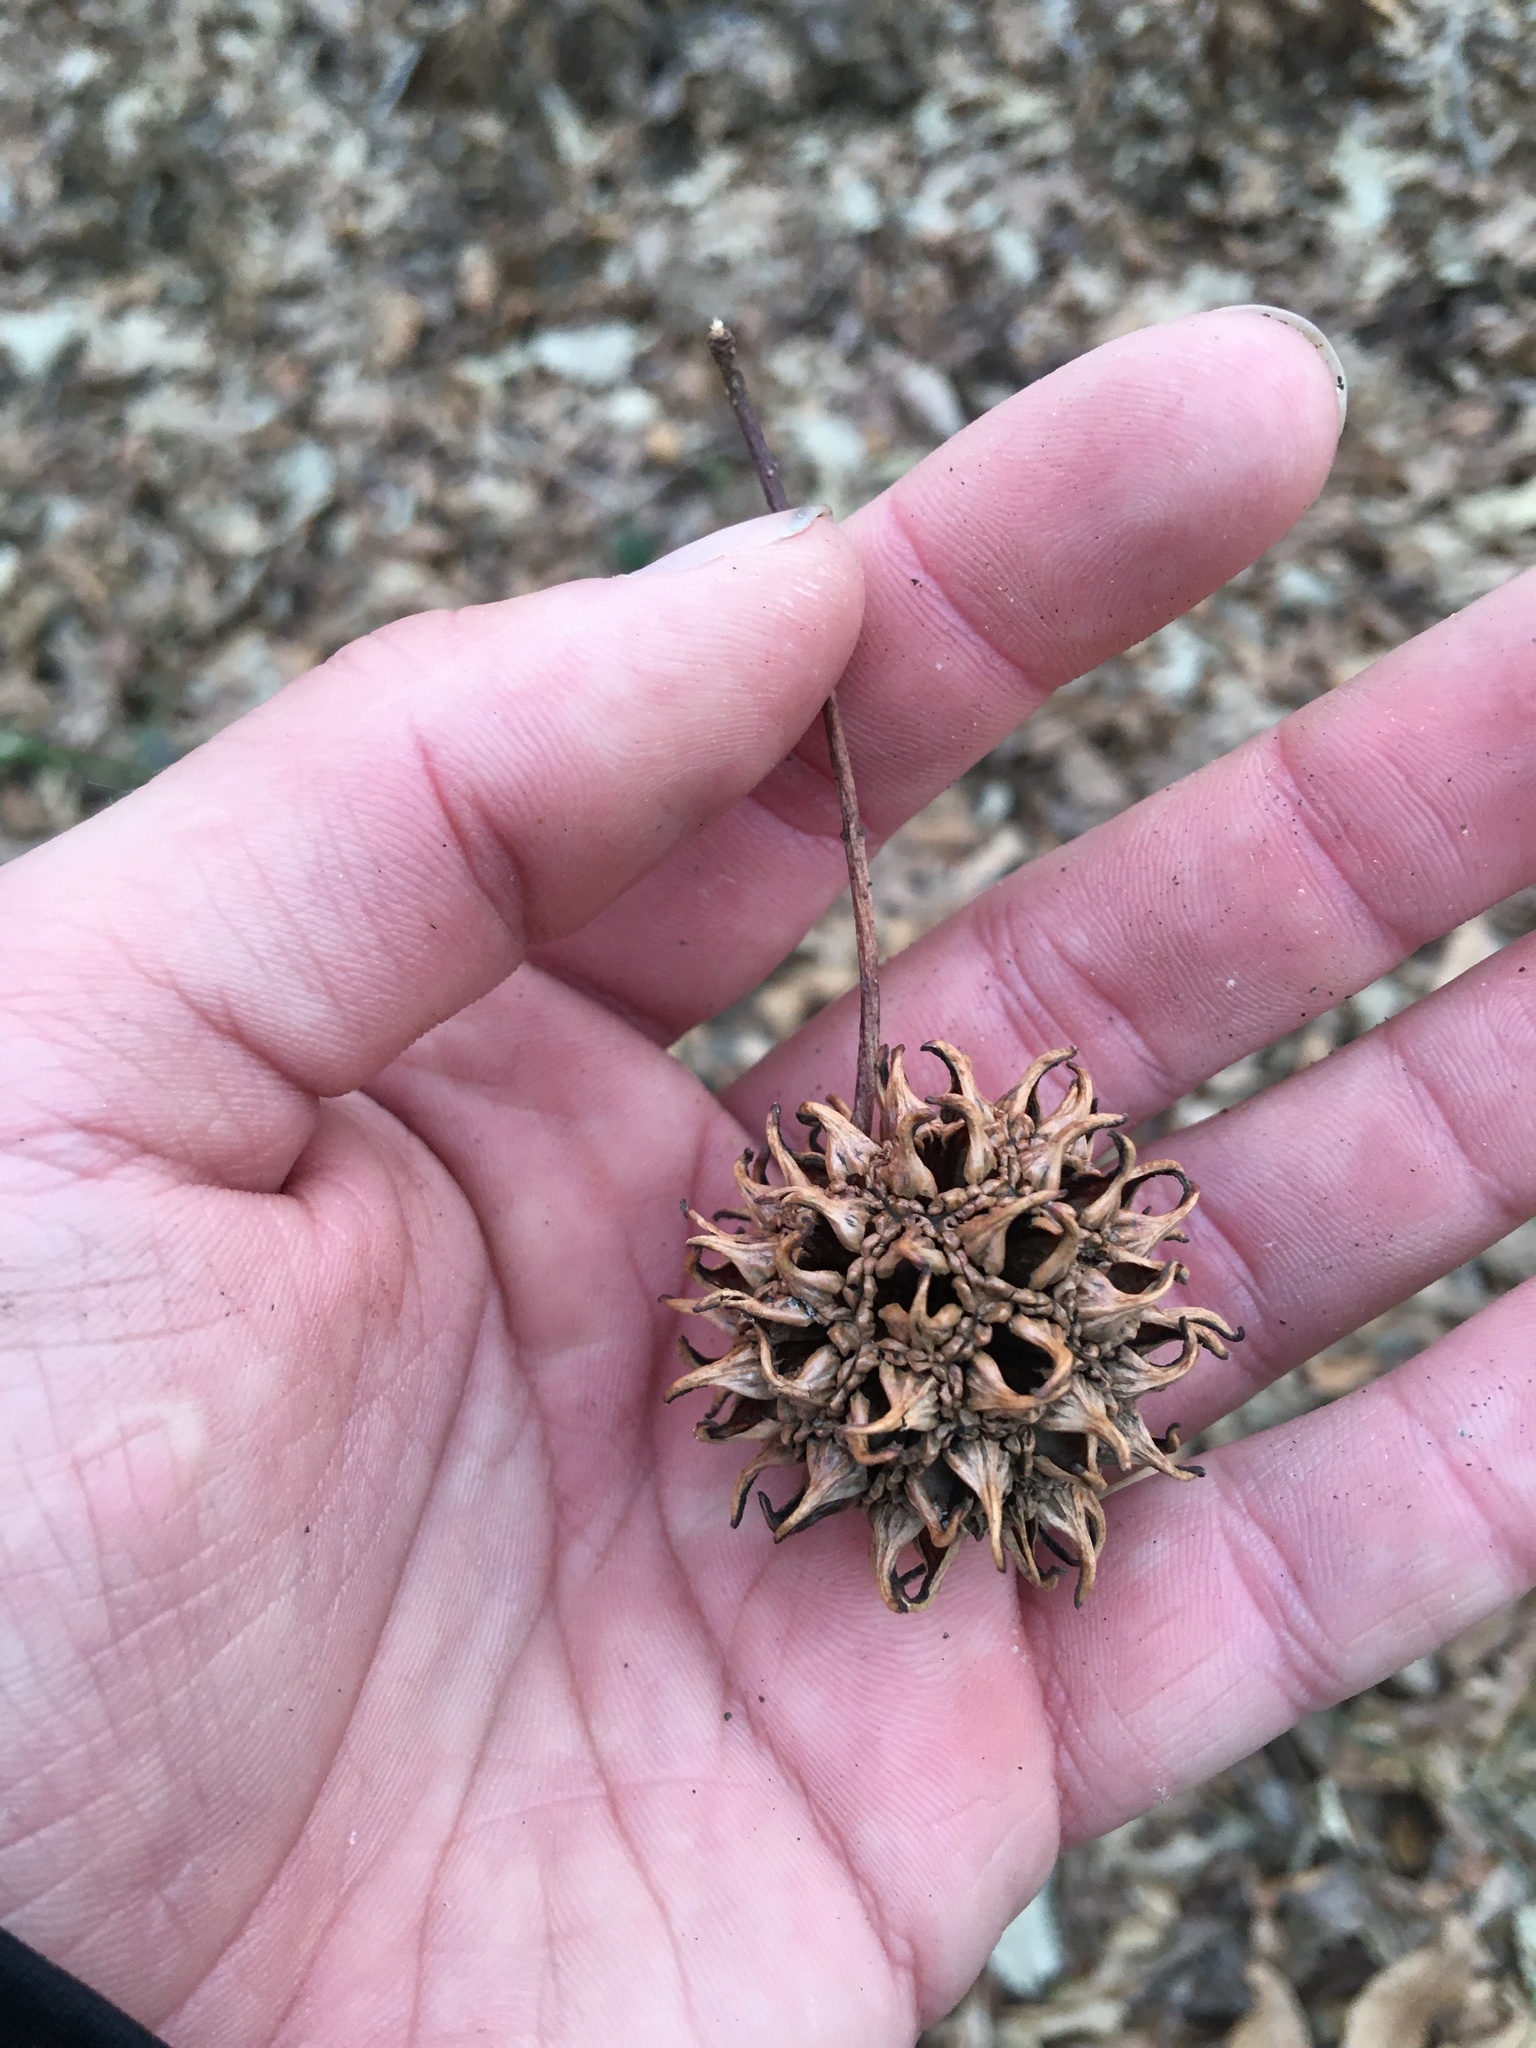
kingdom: Plantae
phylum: Tracheophyta
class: Magnoliopsida
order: Saxifragales
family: Altingiaceae
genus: Liquidambar
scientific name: Liquidambar styraciflua
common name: Sweet gum
